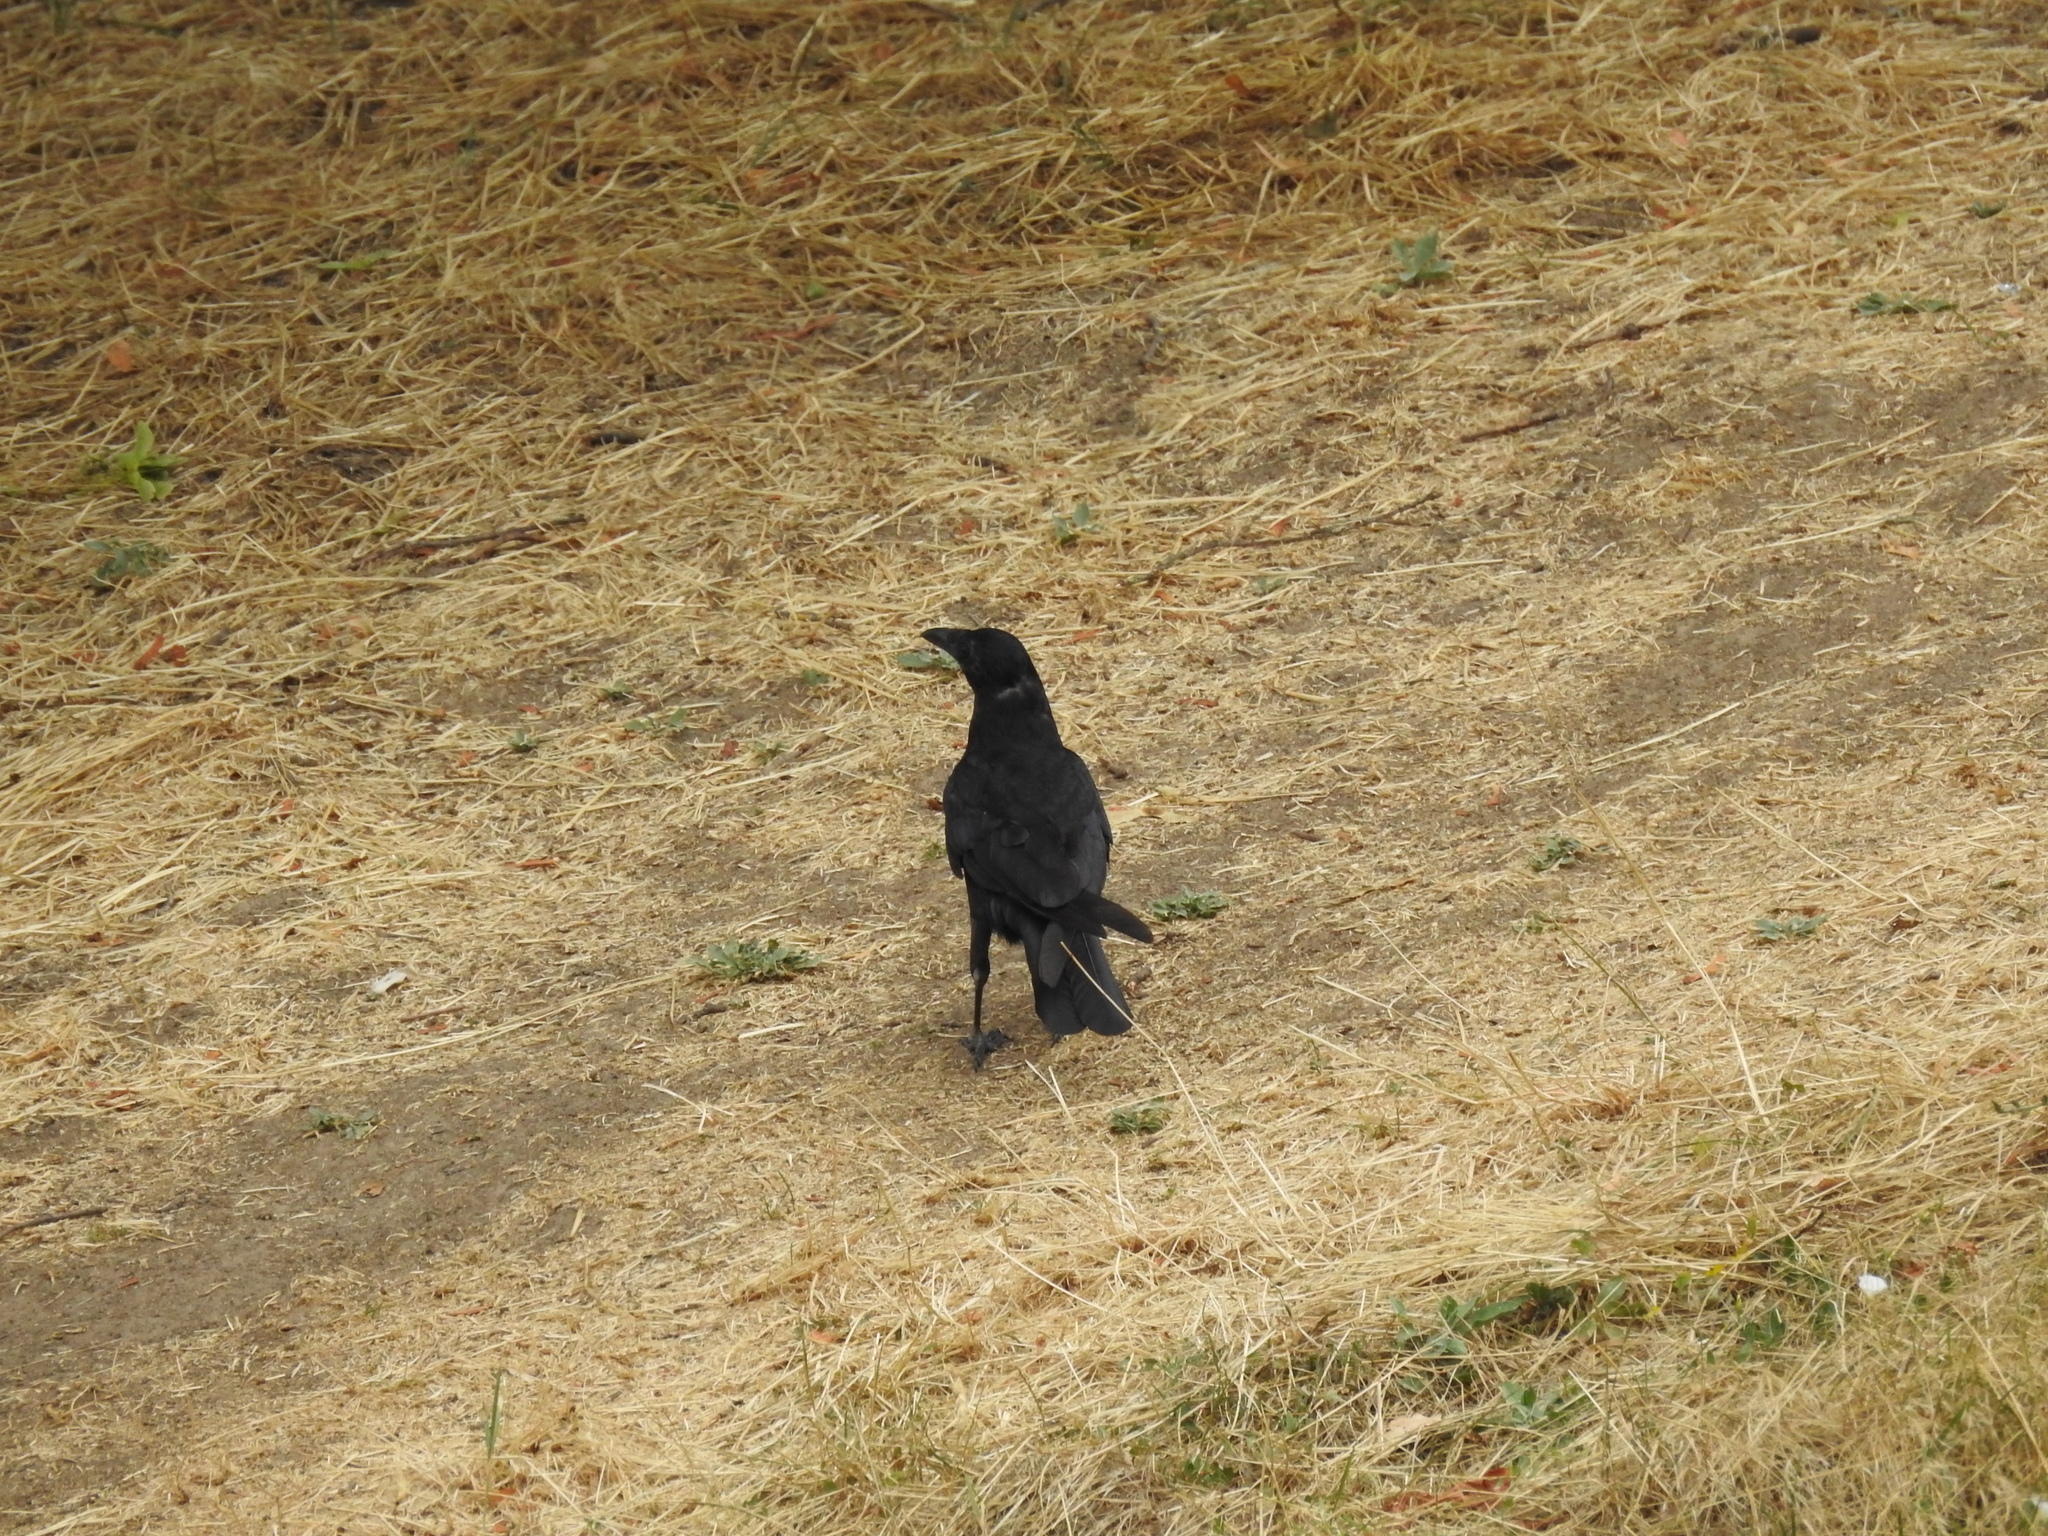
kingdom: Animalia
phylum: Chordata
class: Aves
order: Passeriformes
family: Corvidae
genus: Corvus
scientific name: Corvus corone
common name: Carrion crow
